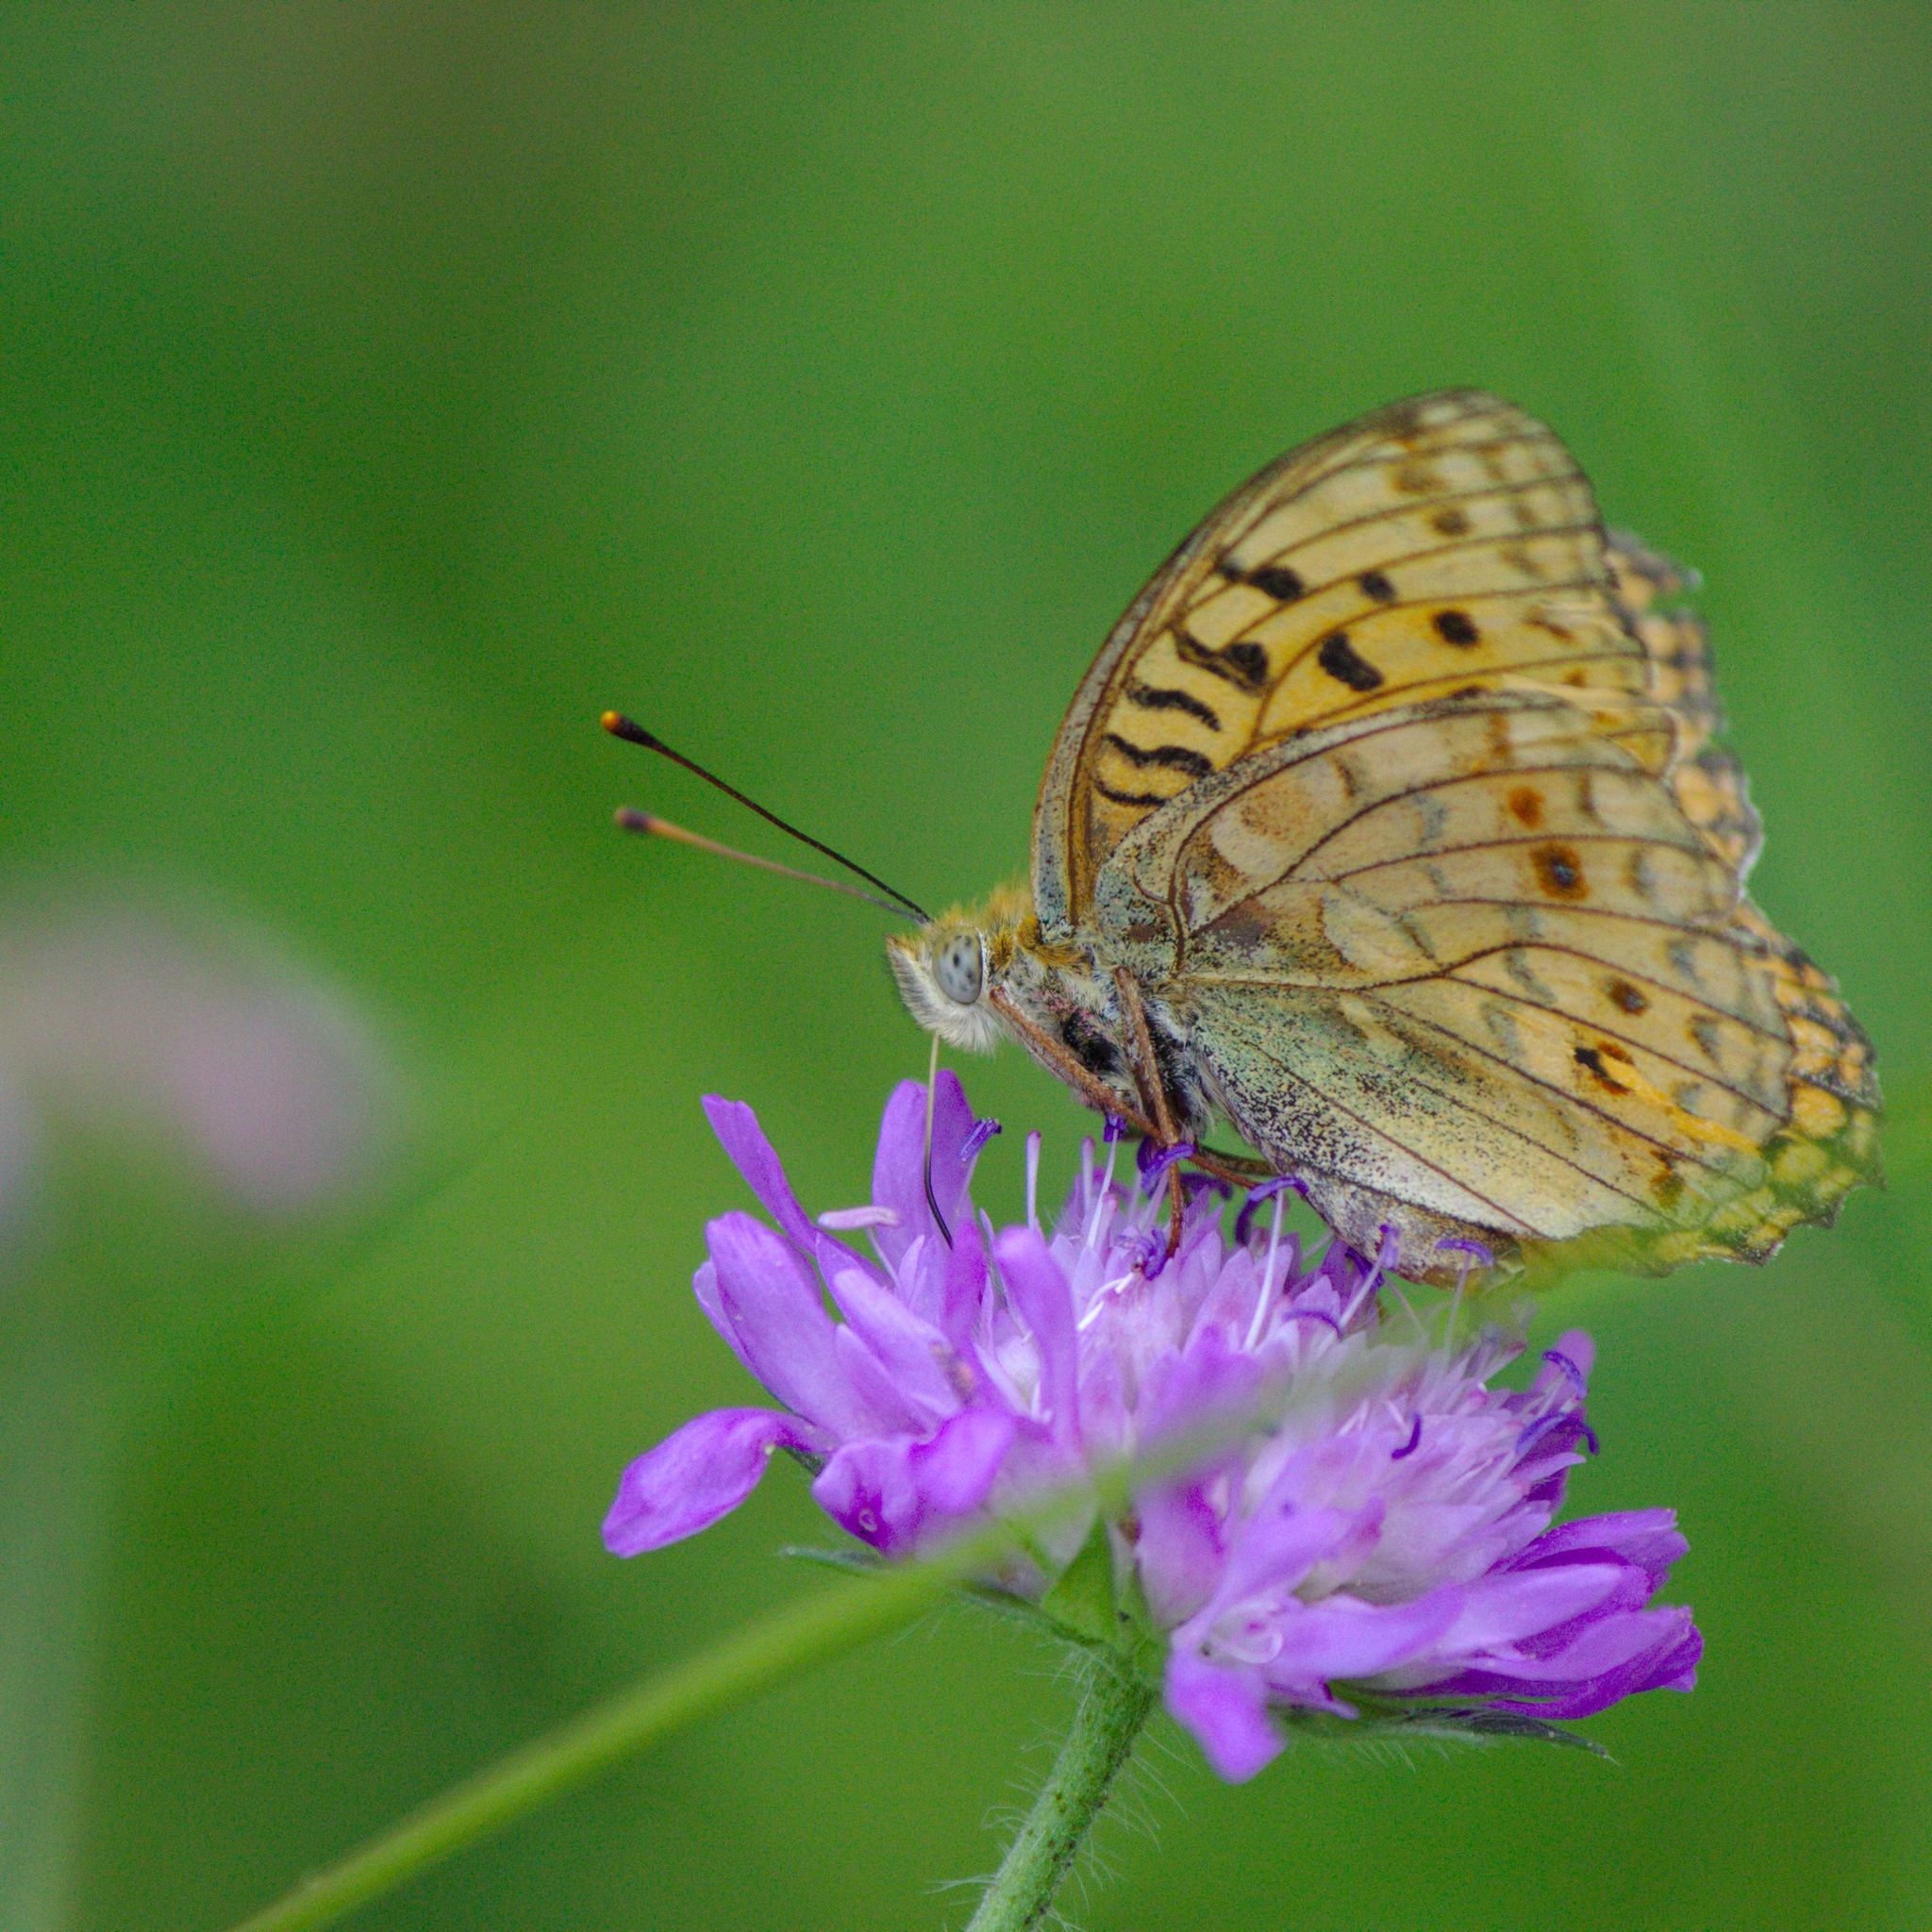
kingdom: Animalia
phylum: Arthropoda
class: Insecta
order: Lepidoptera
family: Nymphalidae
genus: Fabriciana
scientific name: Fabriciana adippe
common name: High brown fritillary
